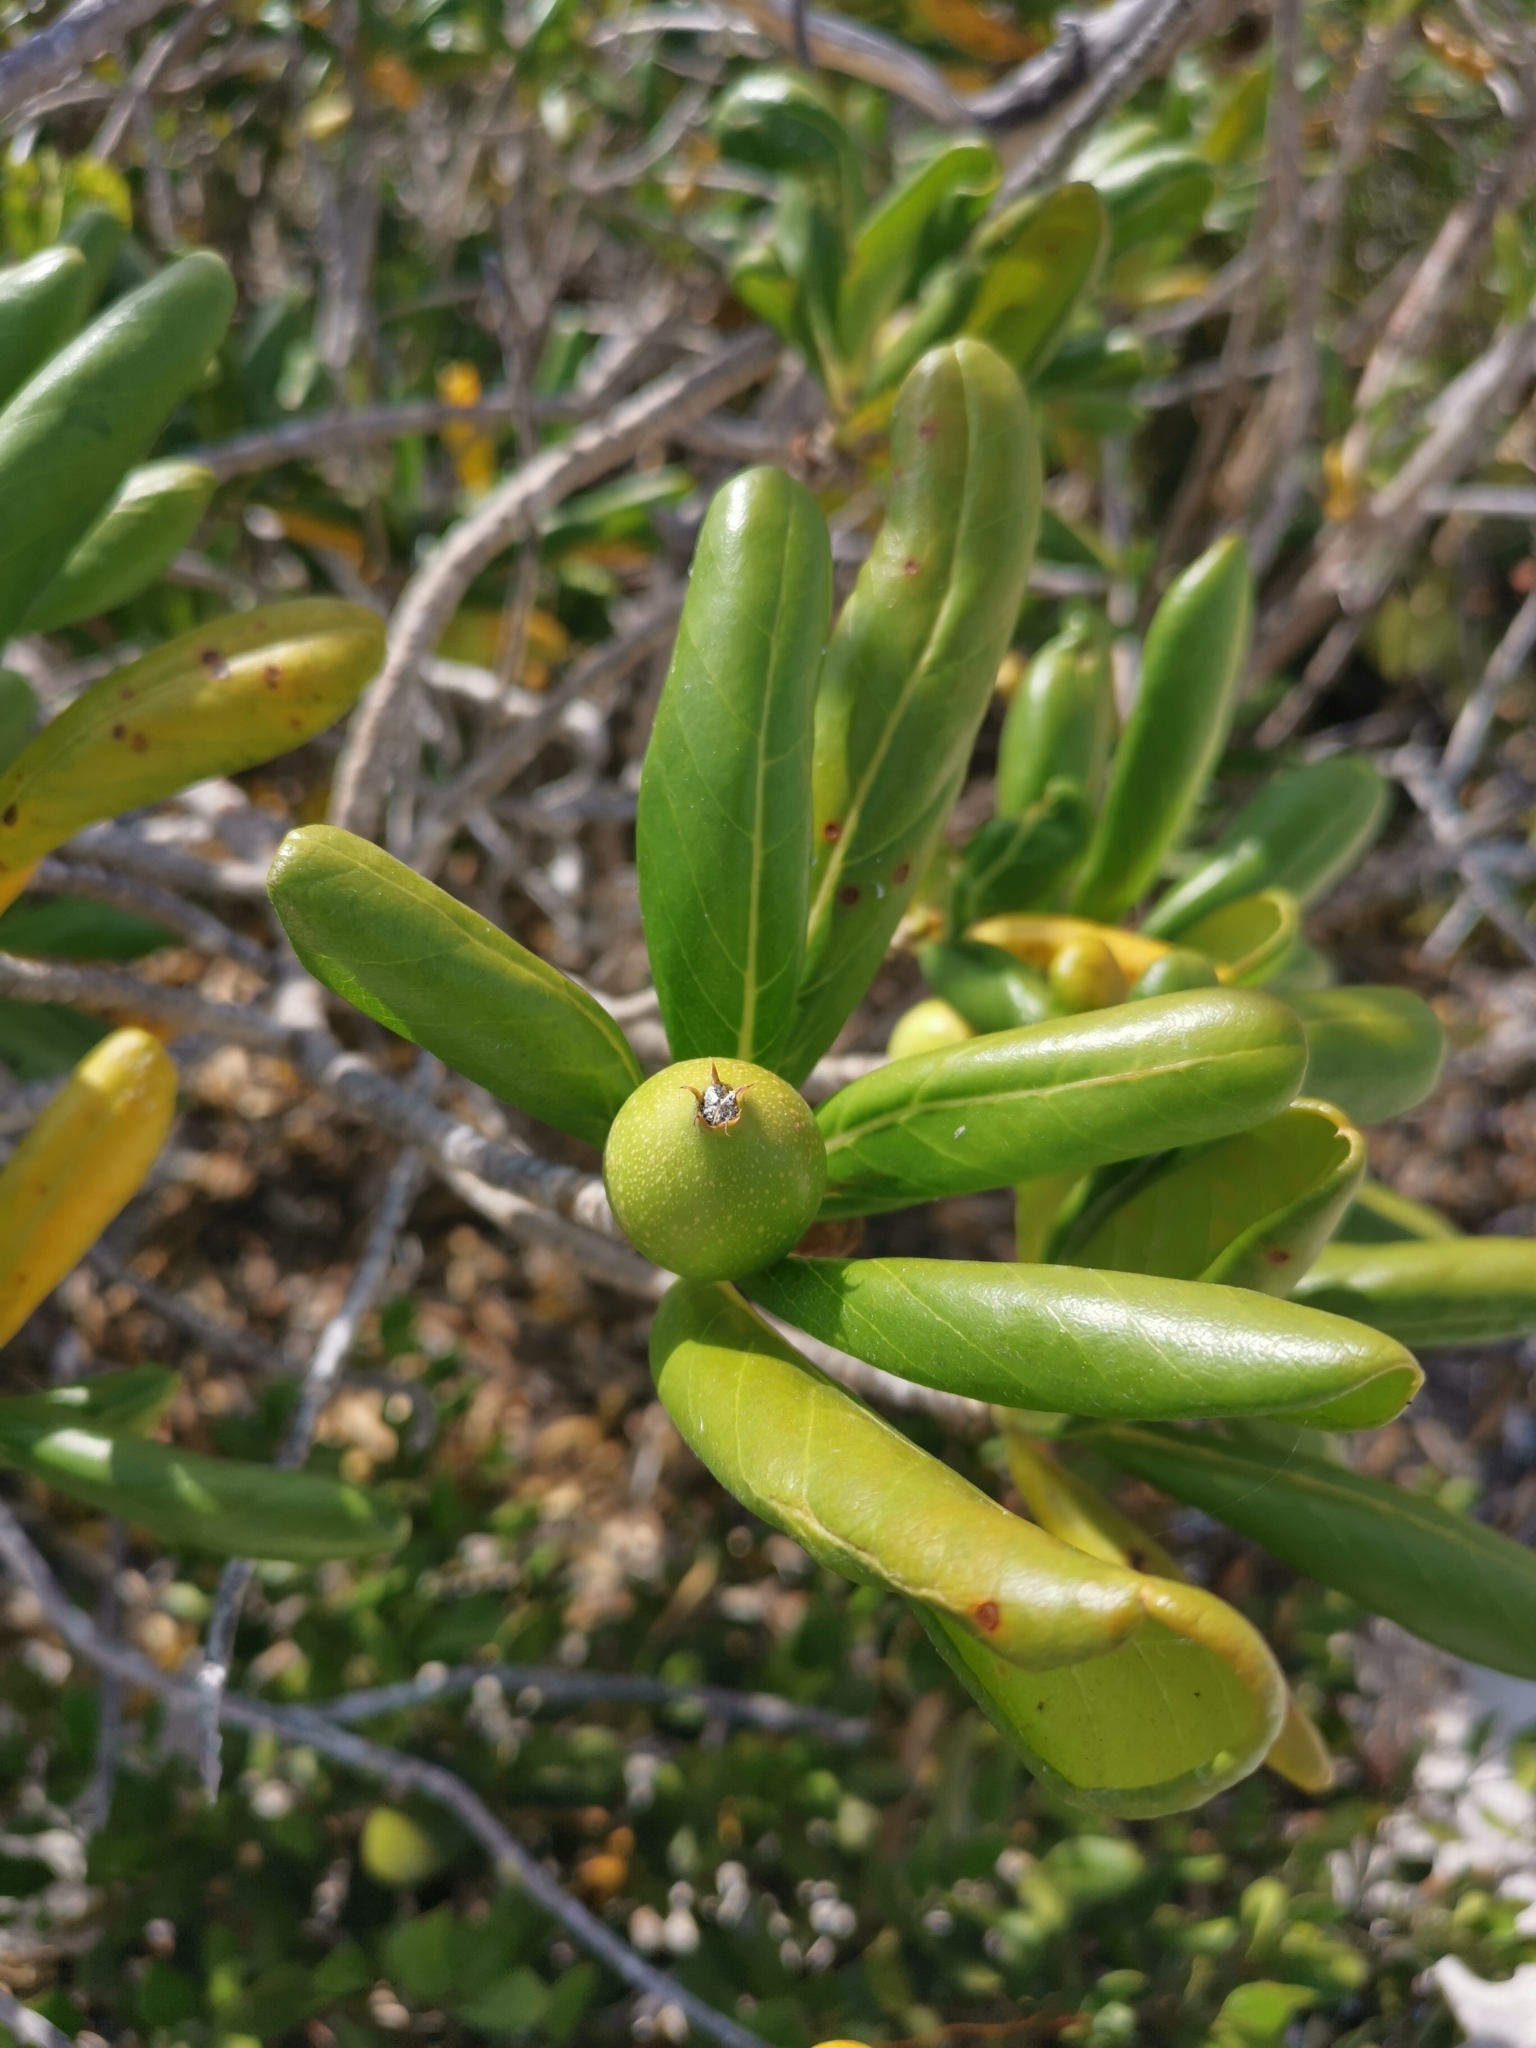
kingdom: Plantae
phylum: Tracheophyta
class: Magnoliopsida
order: Gentianales
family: Rubiaceae
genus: Casasia
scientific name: Casasia clusiifolia
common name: Seven-year apple
